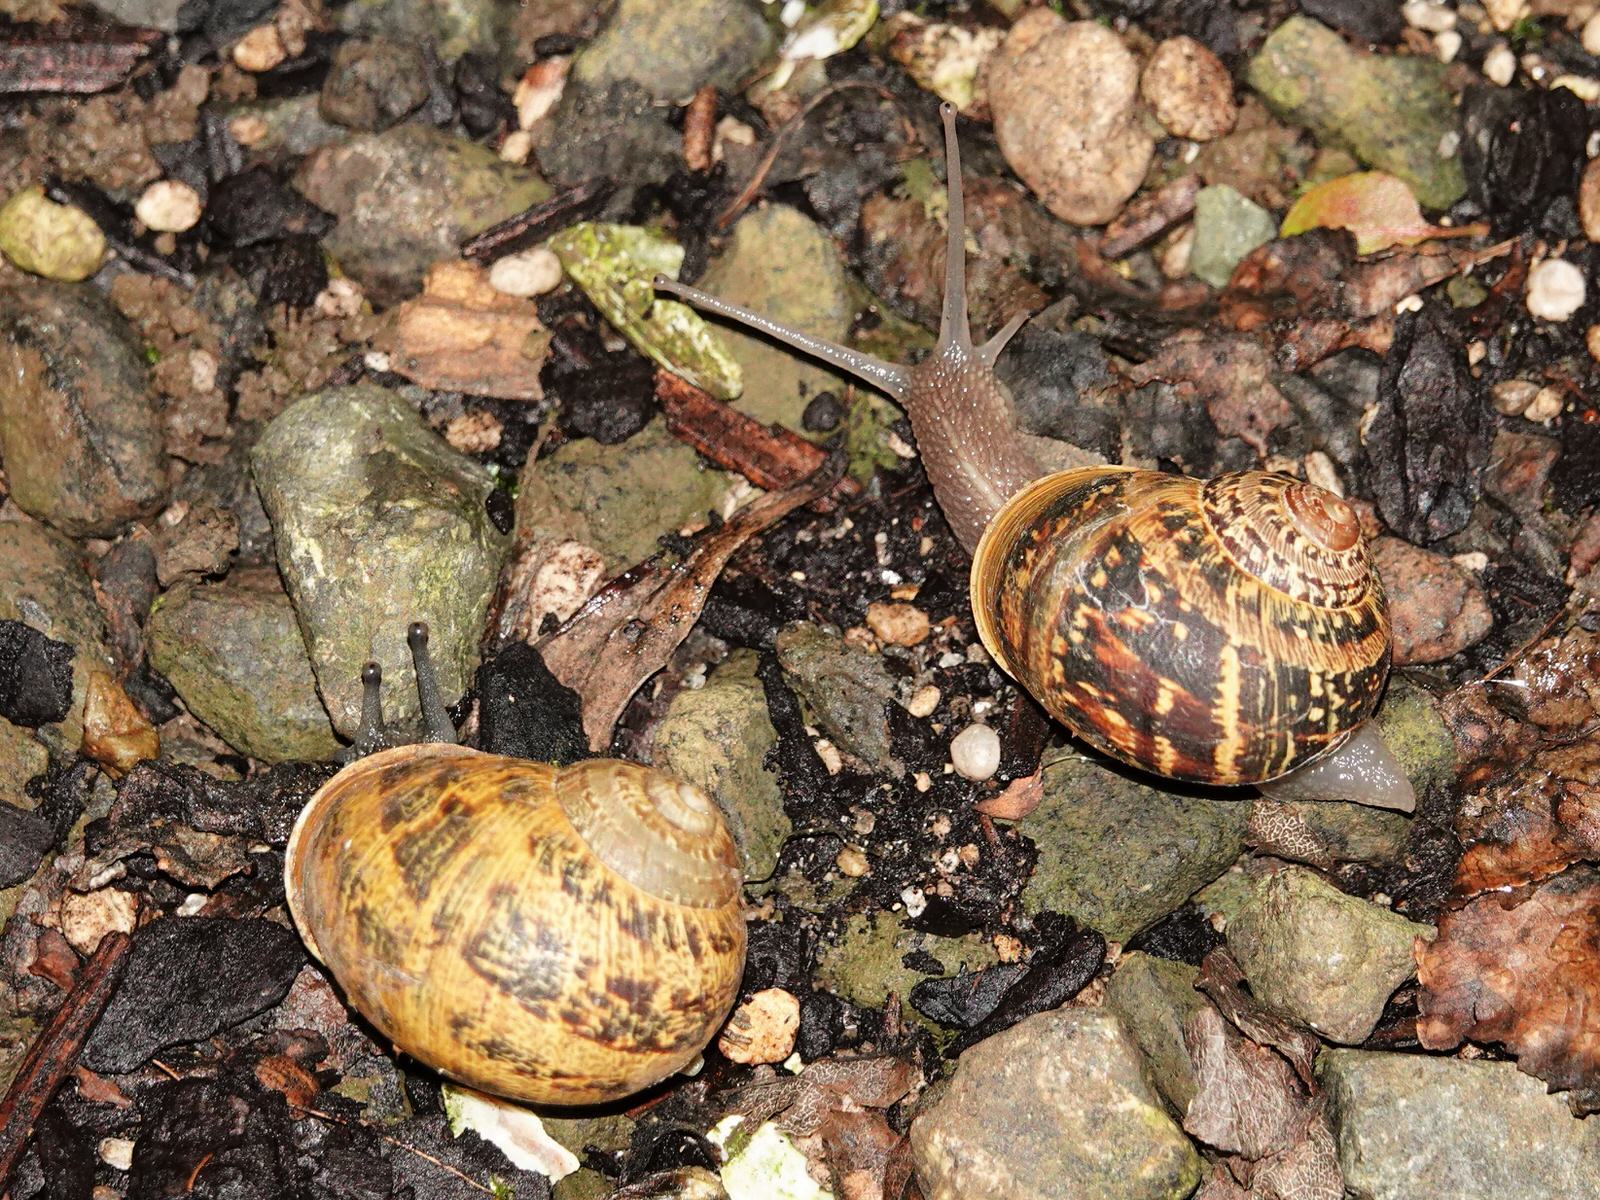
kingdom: Animalia
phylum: Mollusca
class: Gastropoda
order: Stylommatophora
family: Helicidae
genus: Cornu
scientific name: Cornu aspersum
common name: Brown garden snail
